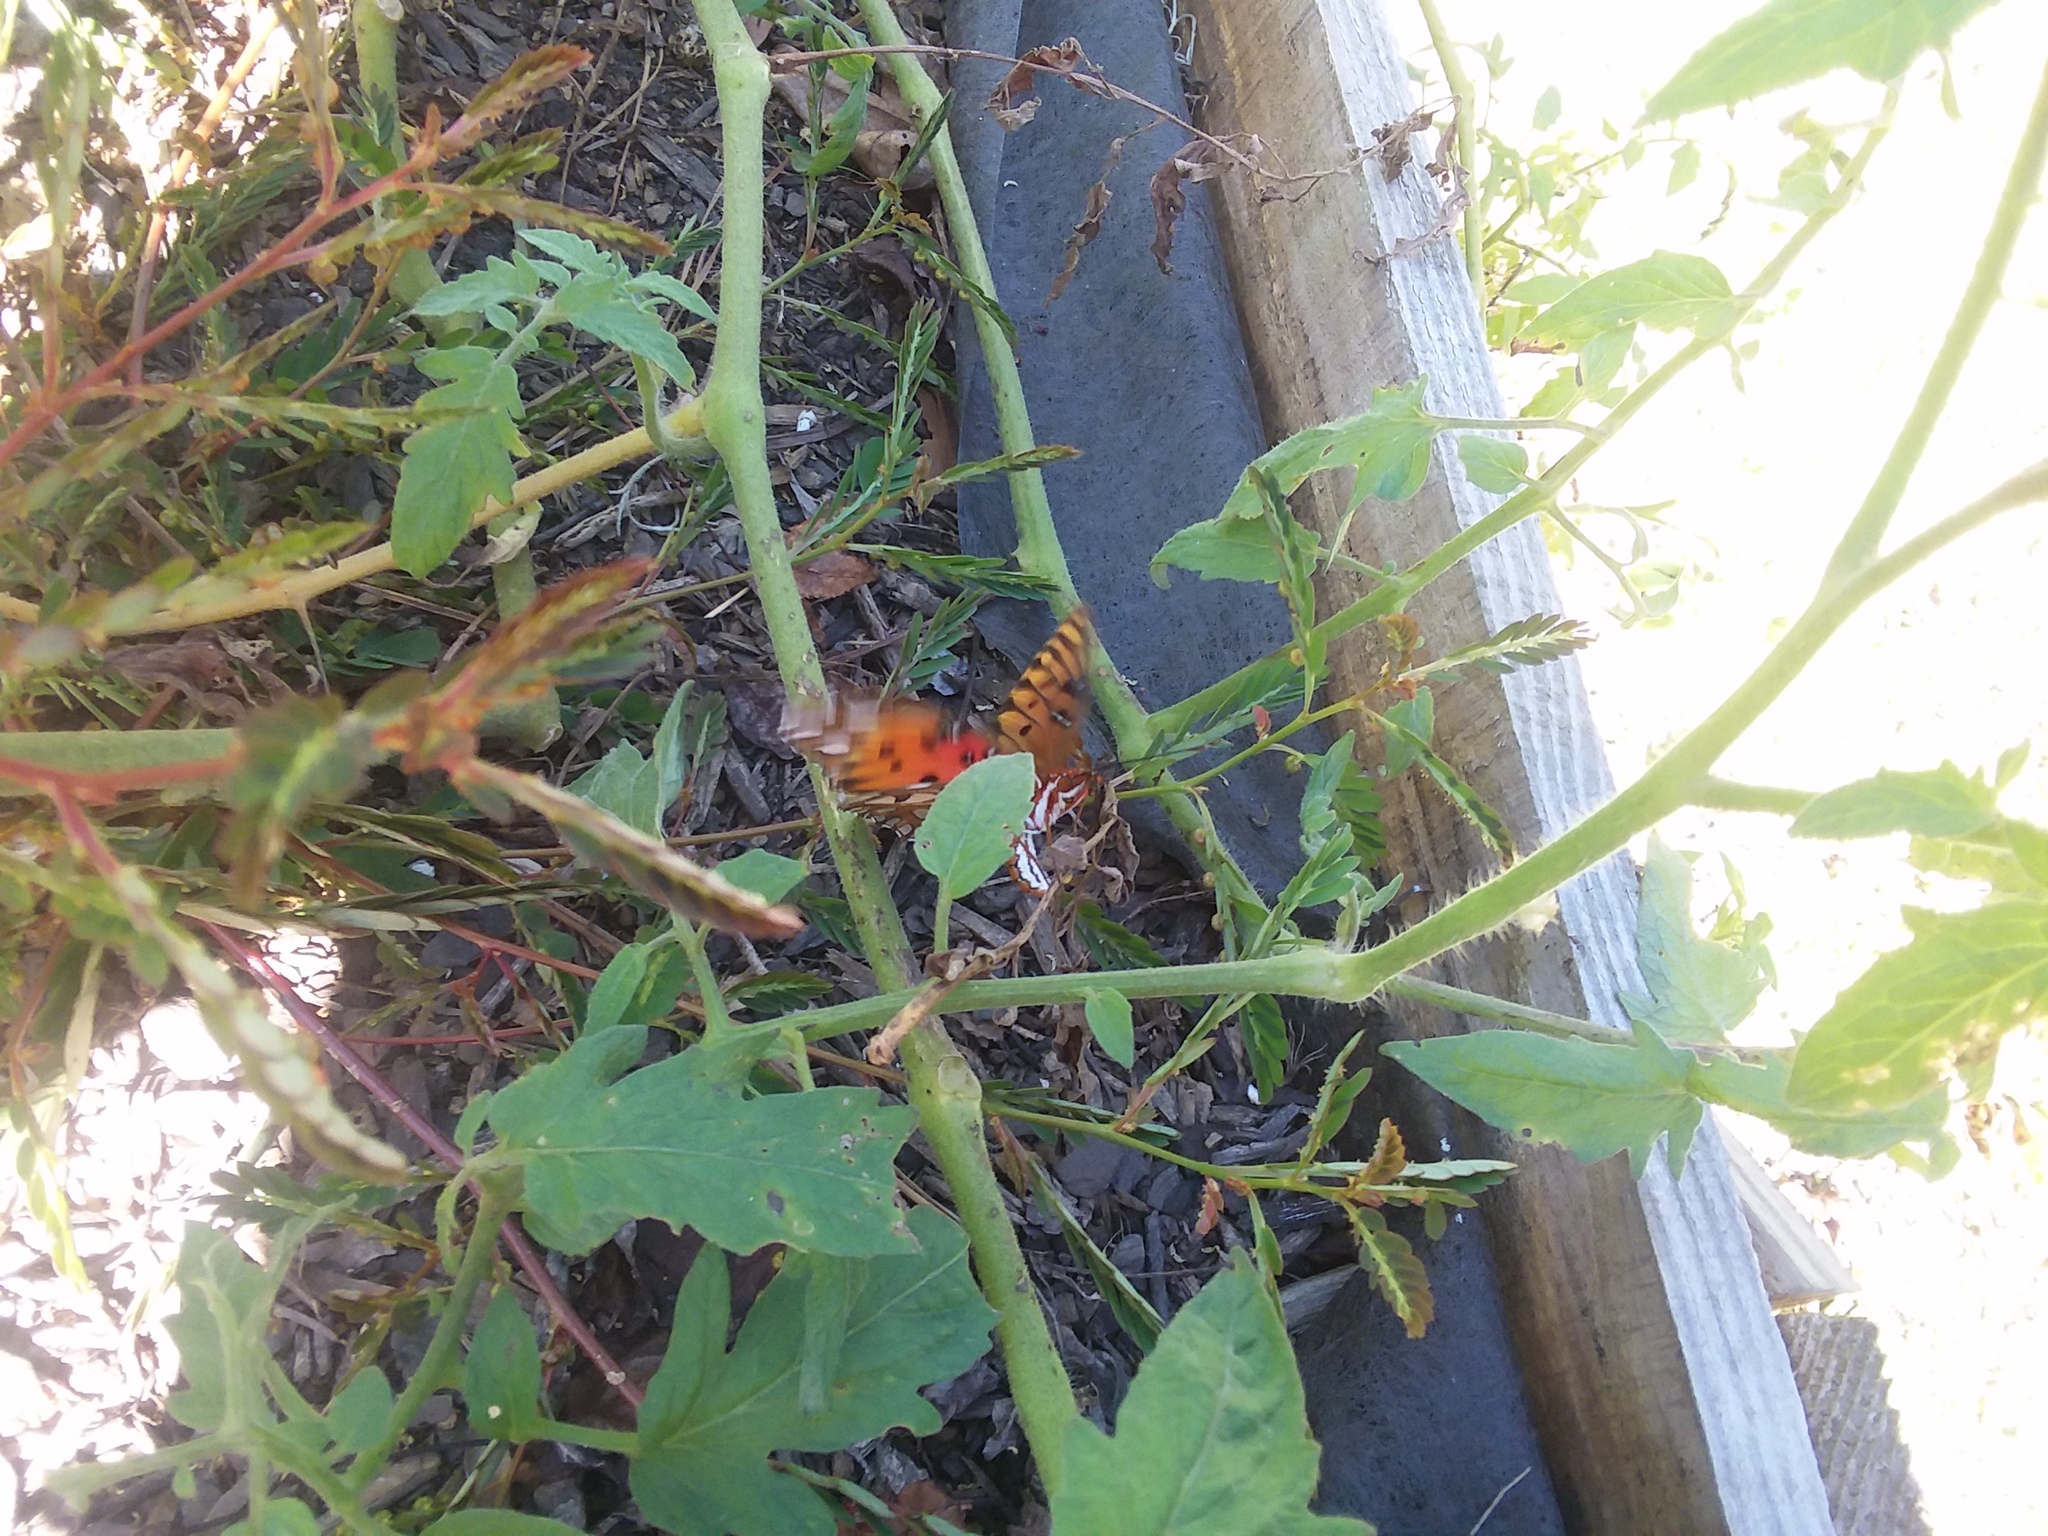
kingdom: Animalia
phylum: Arthropoda
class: Insecta
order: Lepidoptera
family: Nymphalidae
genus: Dione
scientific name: Dione vanillae
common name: Gulf fritillary
